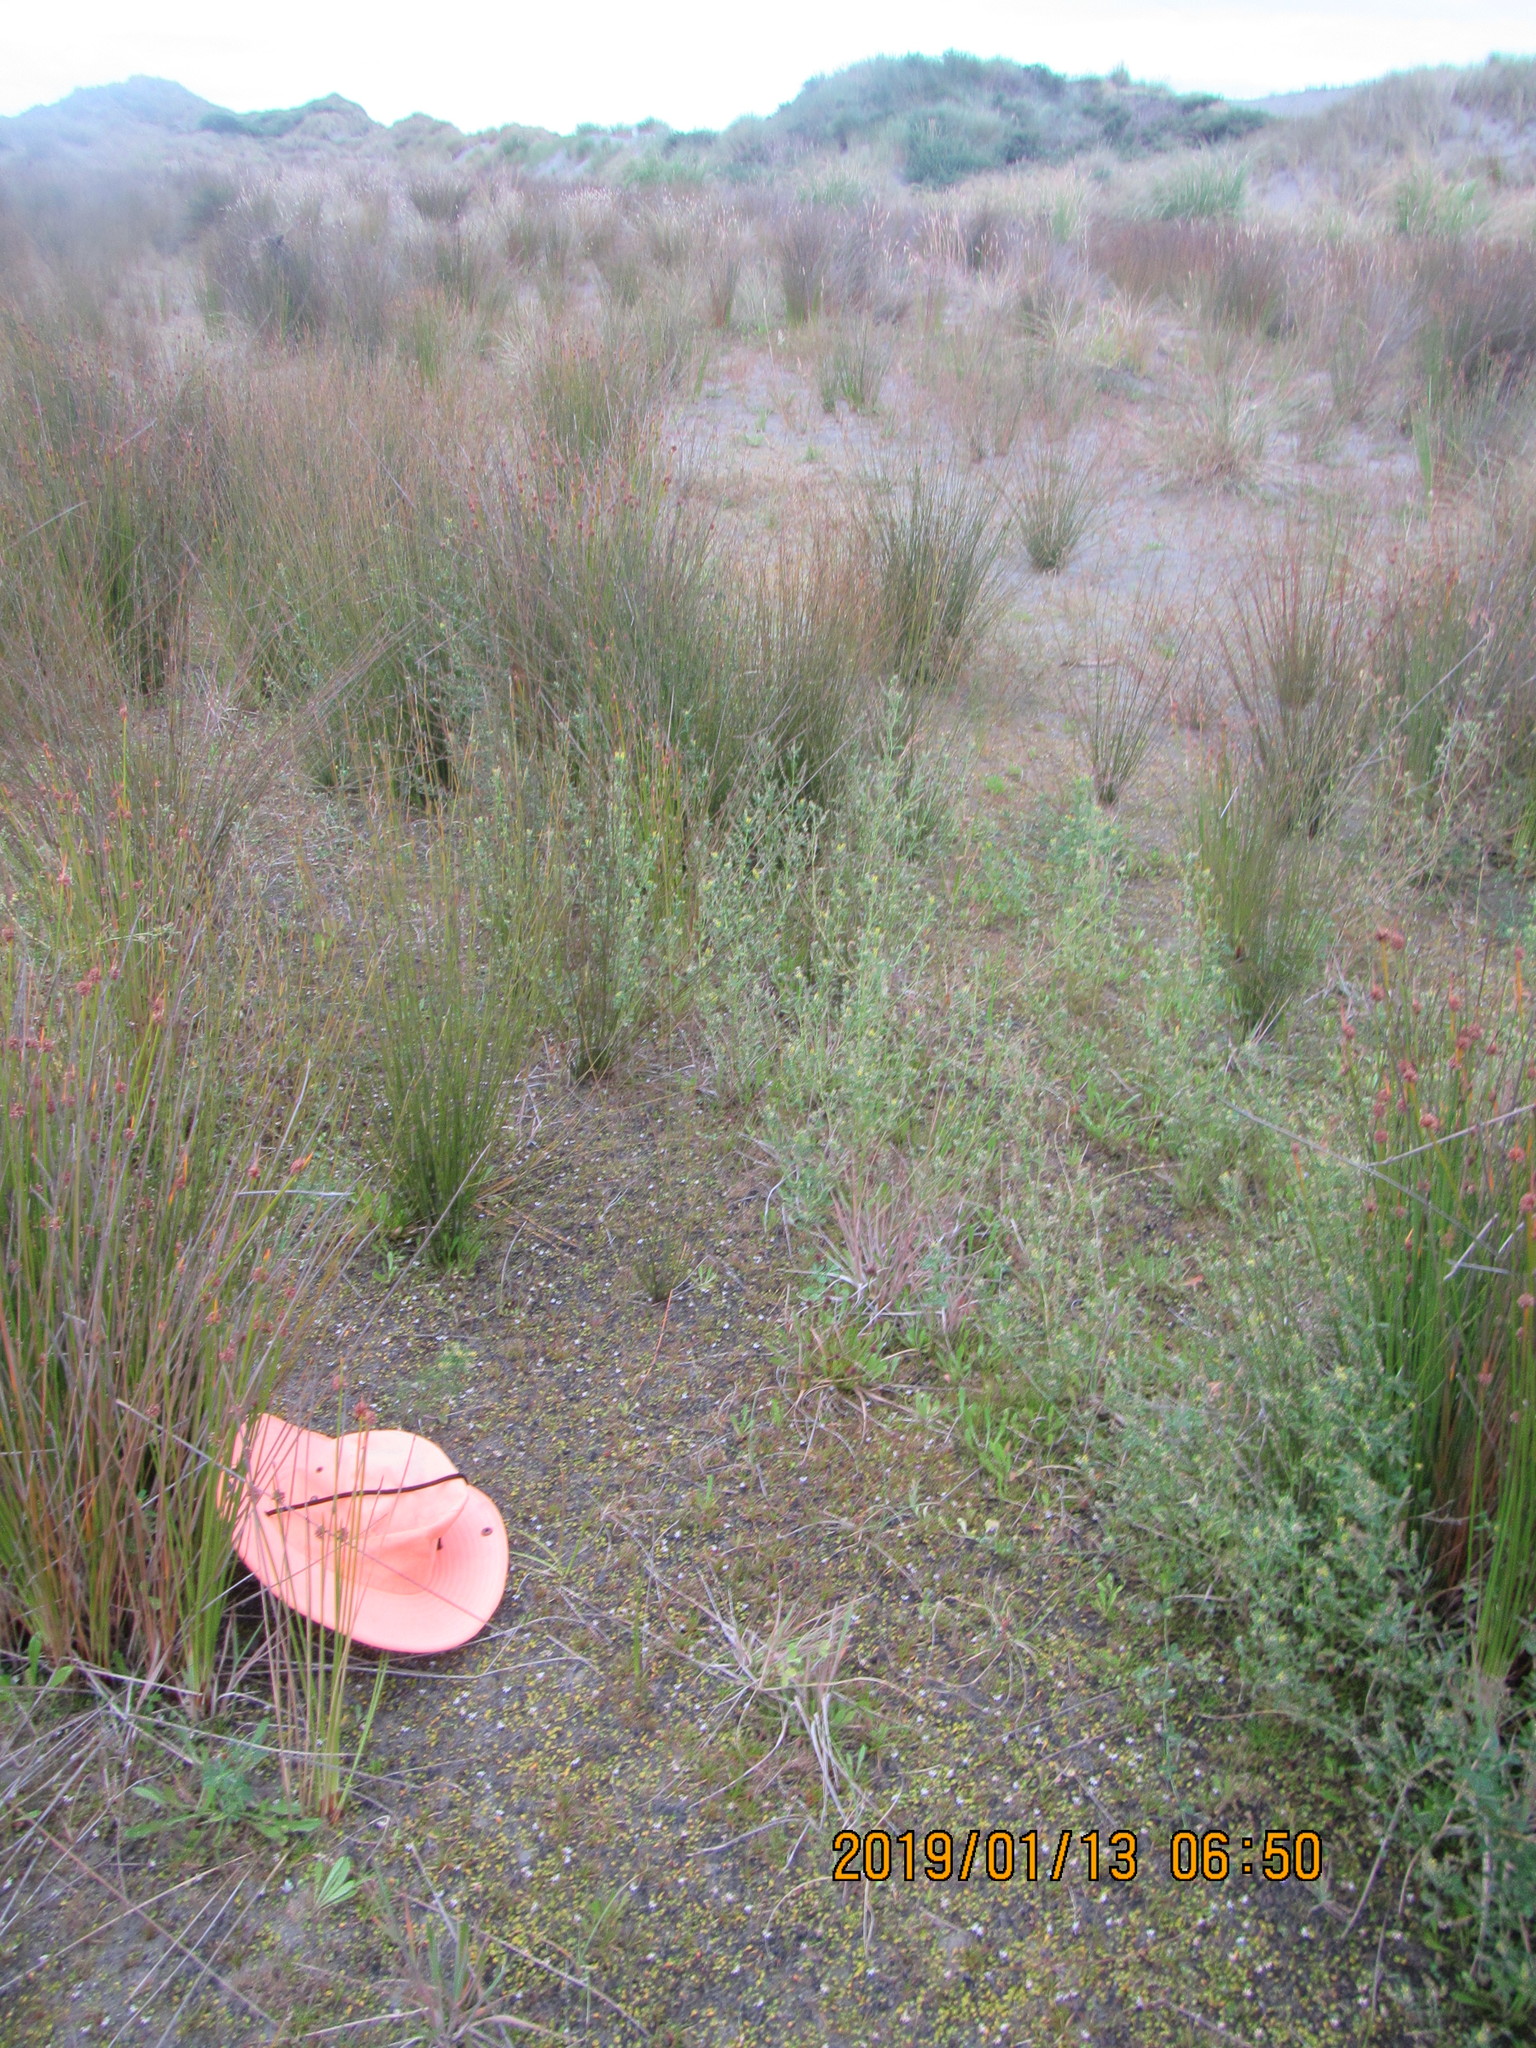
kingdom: Plantae
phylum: Tracheophyta
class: Liliopsida
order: Poales
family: Juncaceae
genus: Juncus
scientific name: Juncus caespiticius
